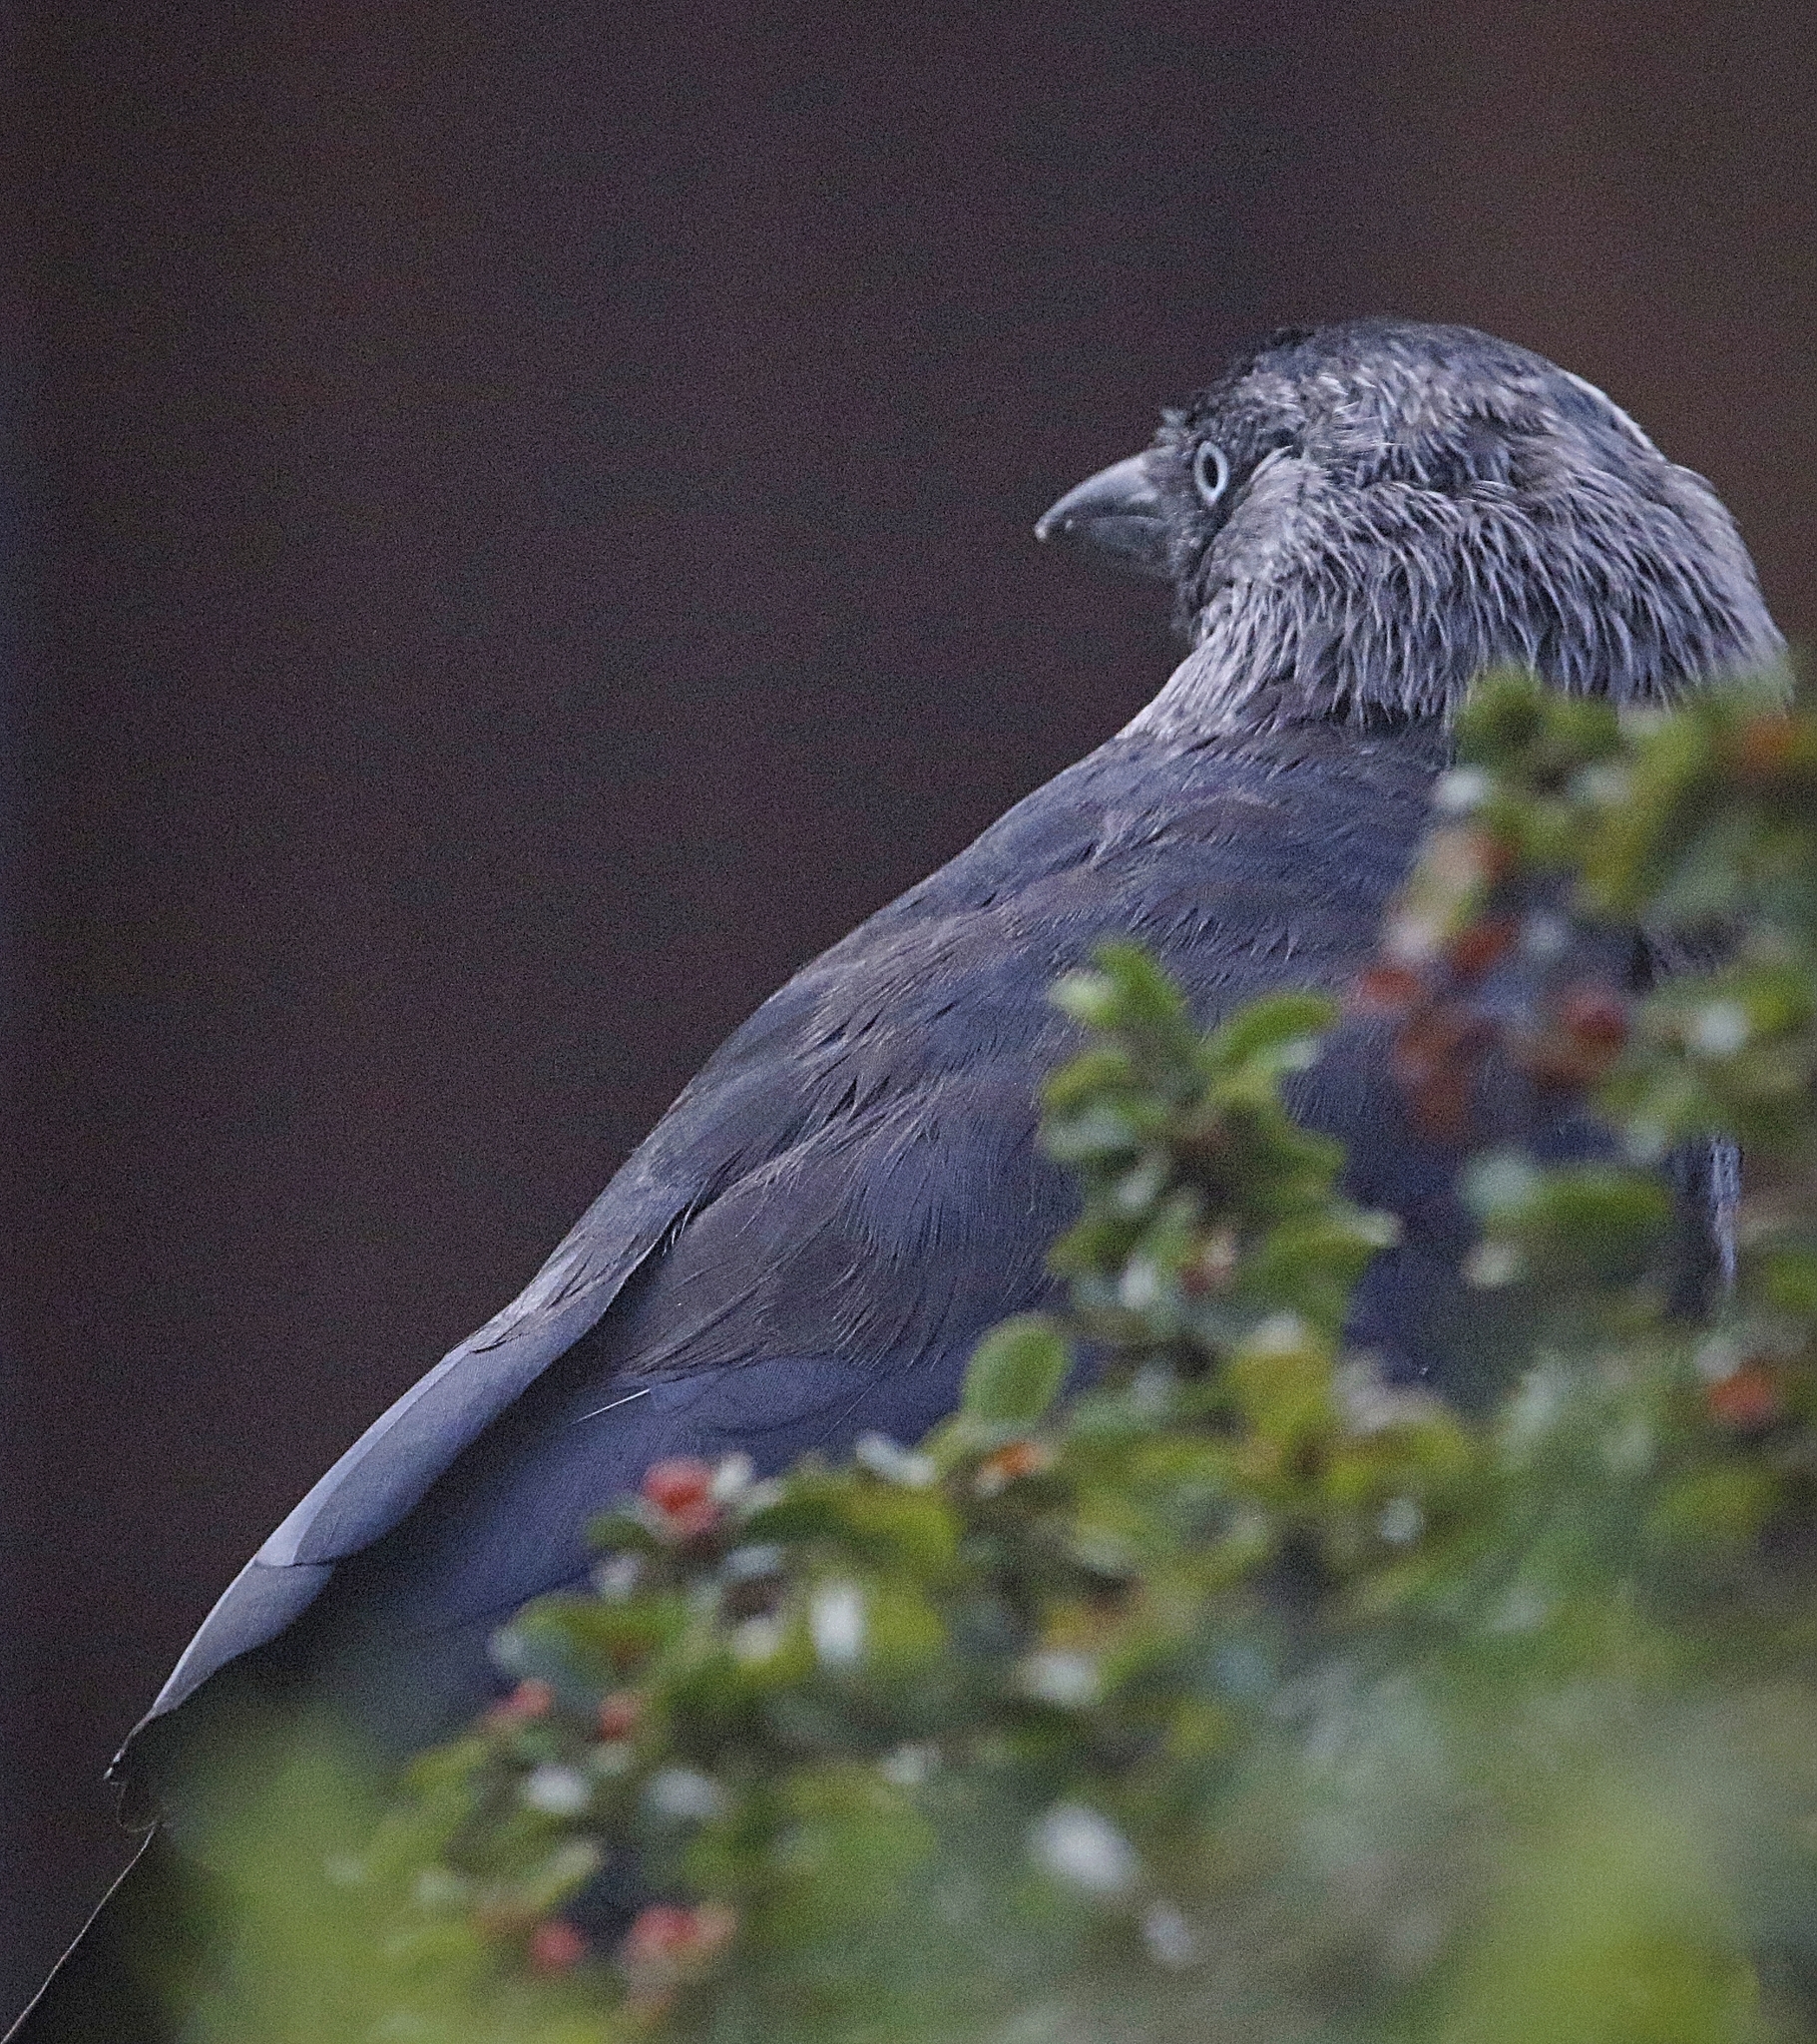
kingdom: Animalia
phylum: Chordata
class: Aves
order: Passeriformes
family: Corvidae
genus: Coloeus
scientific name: Coloeus monedula
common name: Western jackdaw
